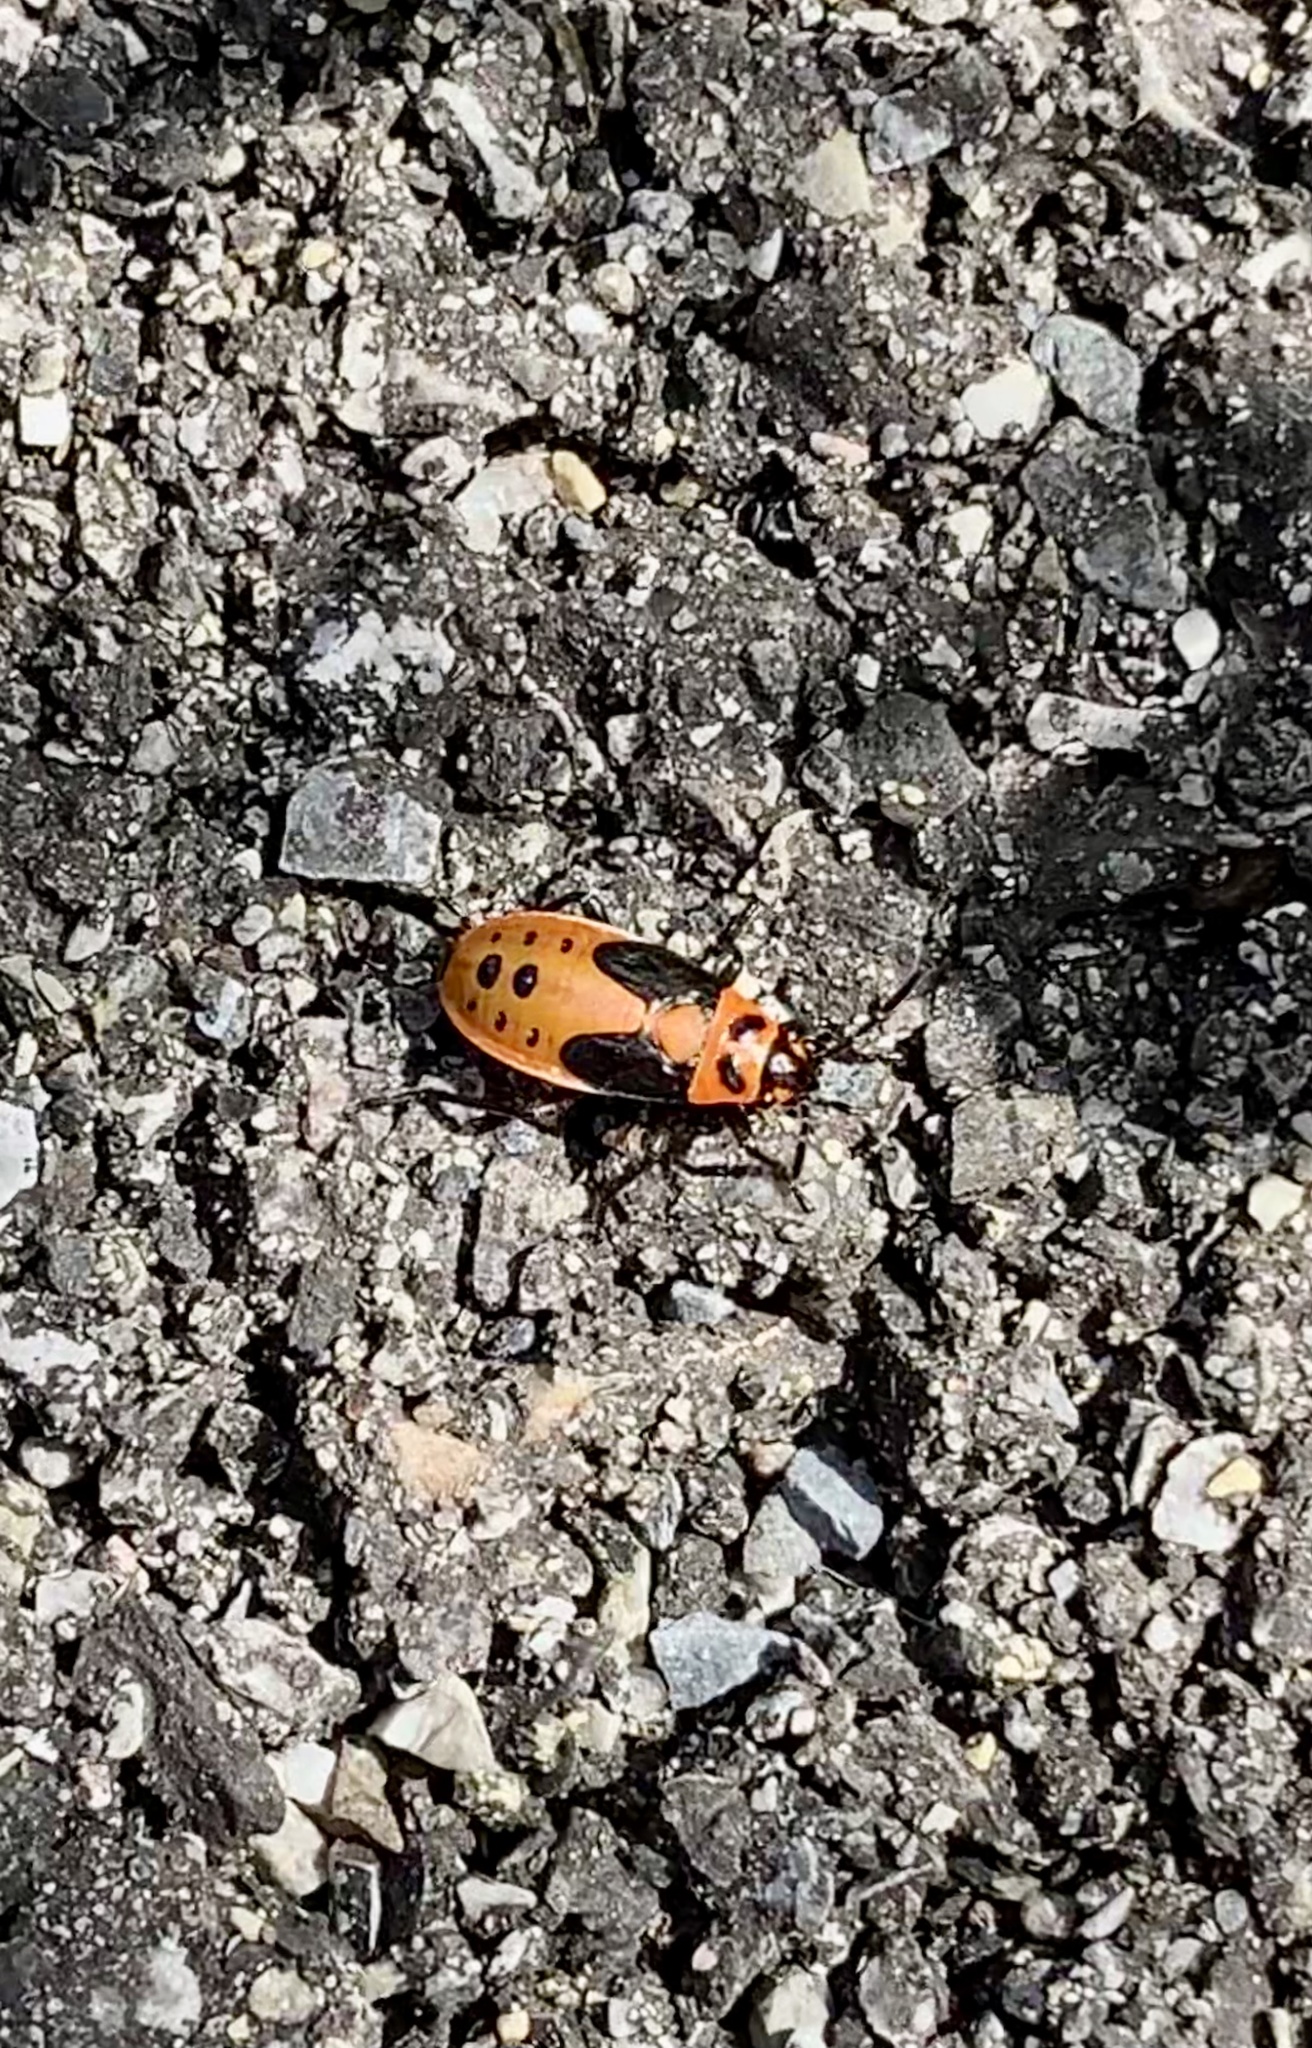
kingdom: Animalia
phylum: Arthropoda
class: Insecta
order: Hemiptera
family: Lygaeidae
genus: Lygaeus
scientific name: Lygaeus kalmii
